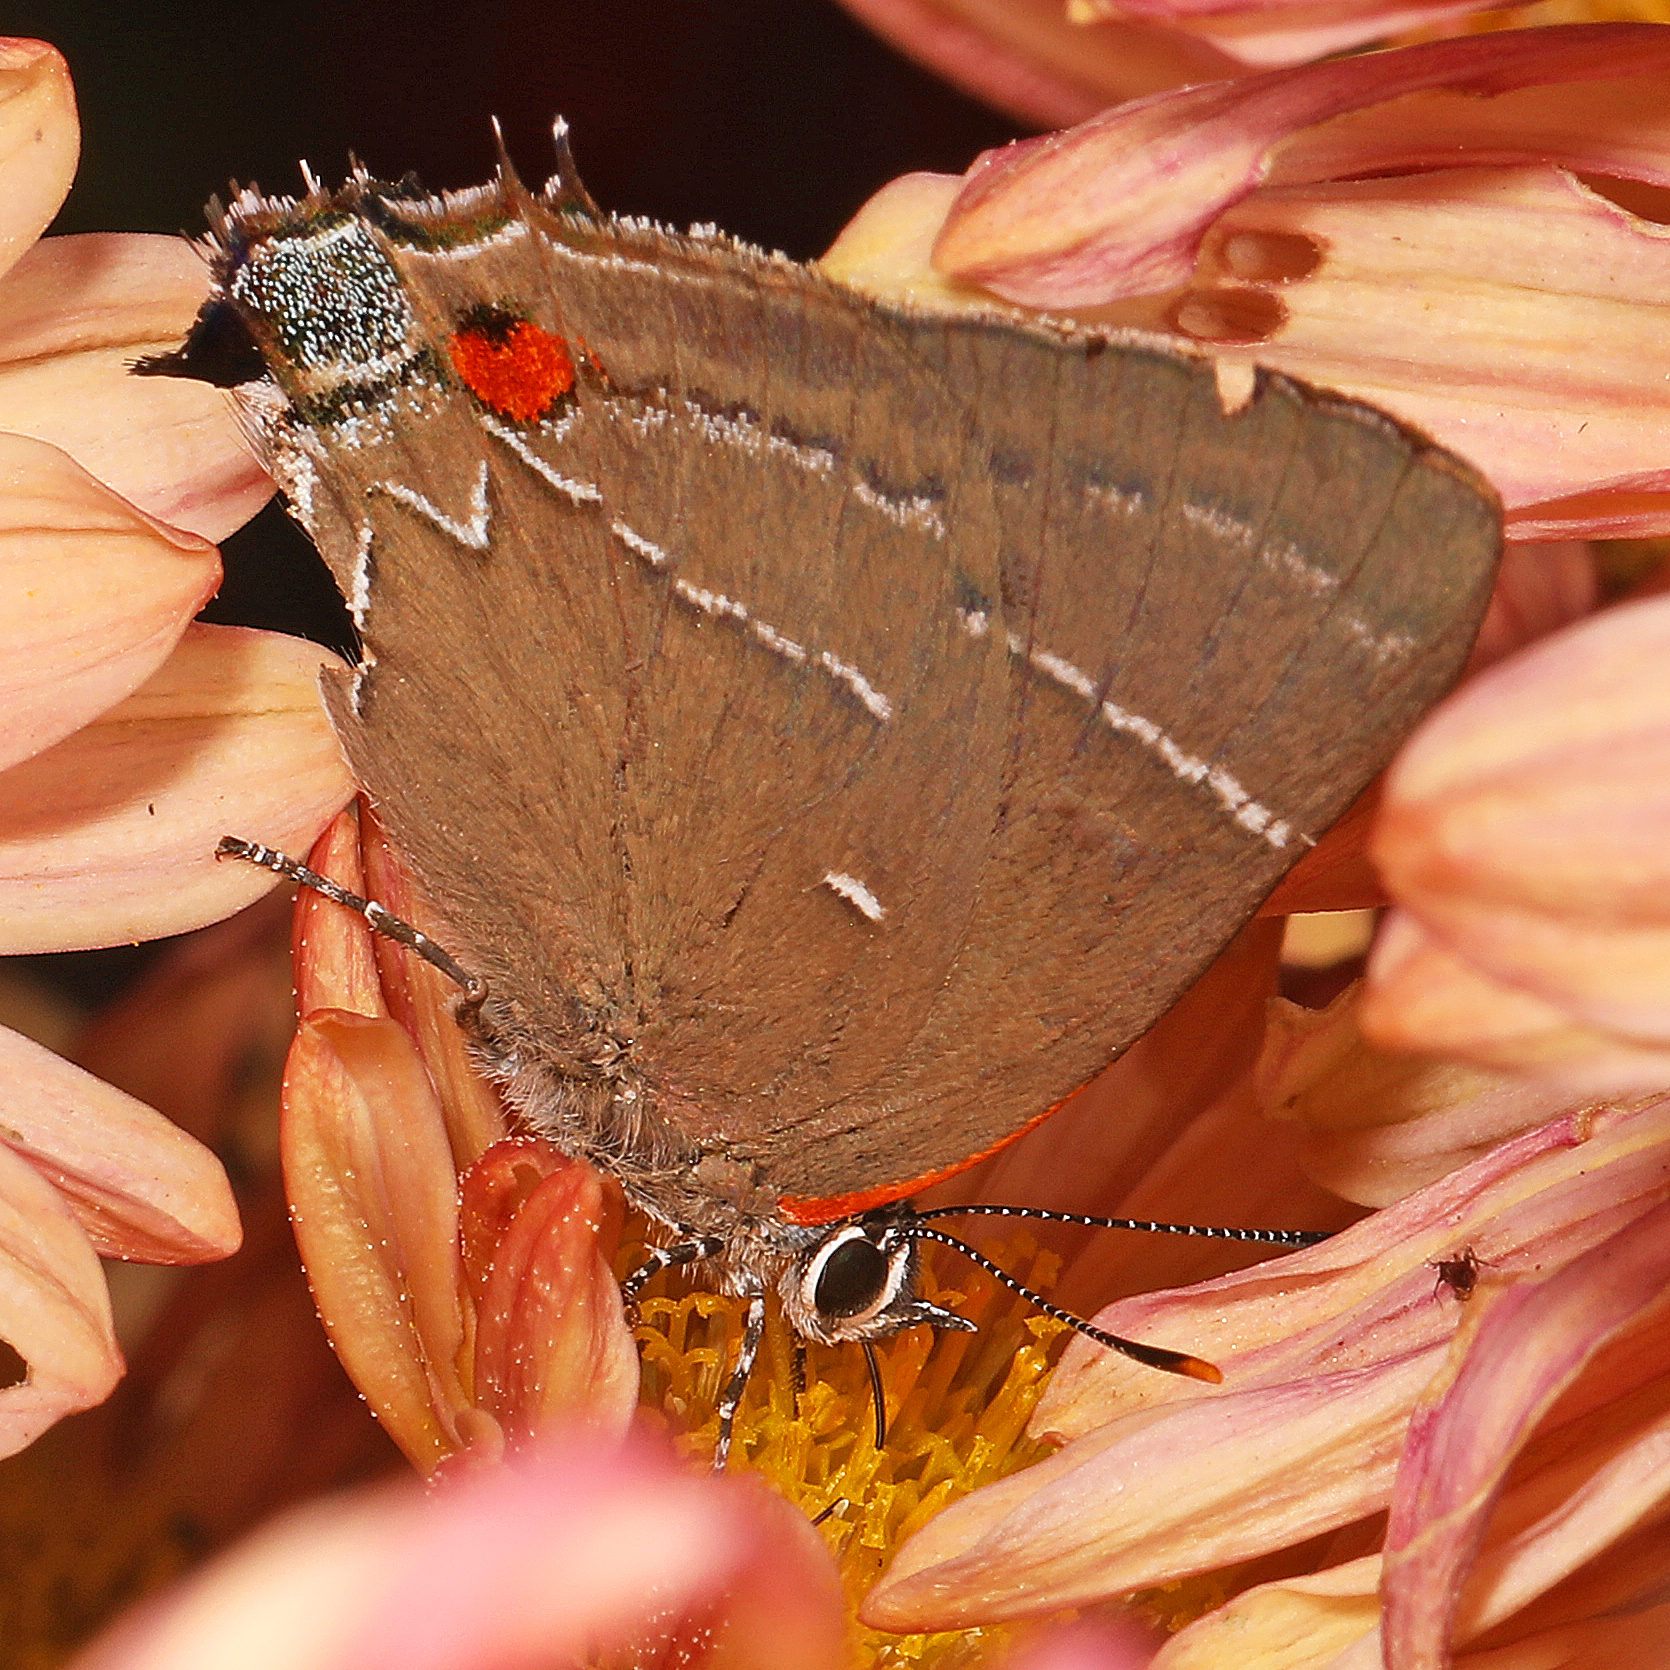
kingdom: Animalia
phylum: Arthropoda
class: Insecta
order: Lepidoptera
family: Lycaenidae
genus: Parrhasius
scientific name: Parrhasius m-album
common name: White m hairstreak
